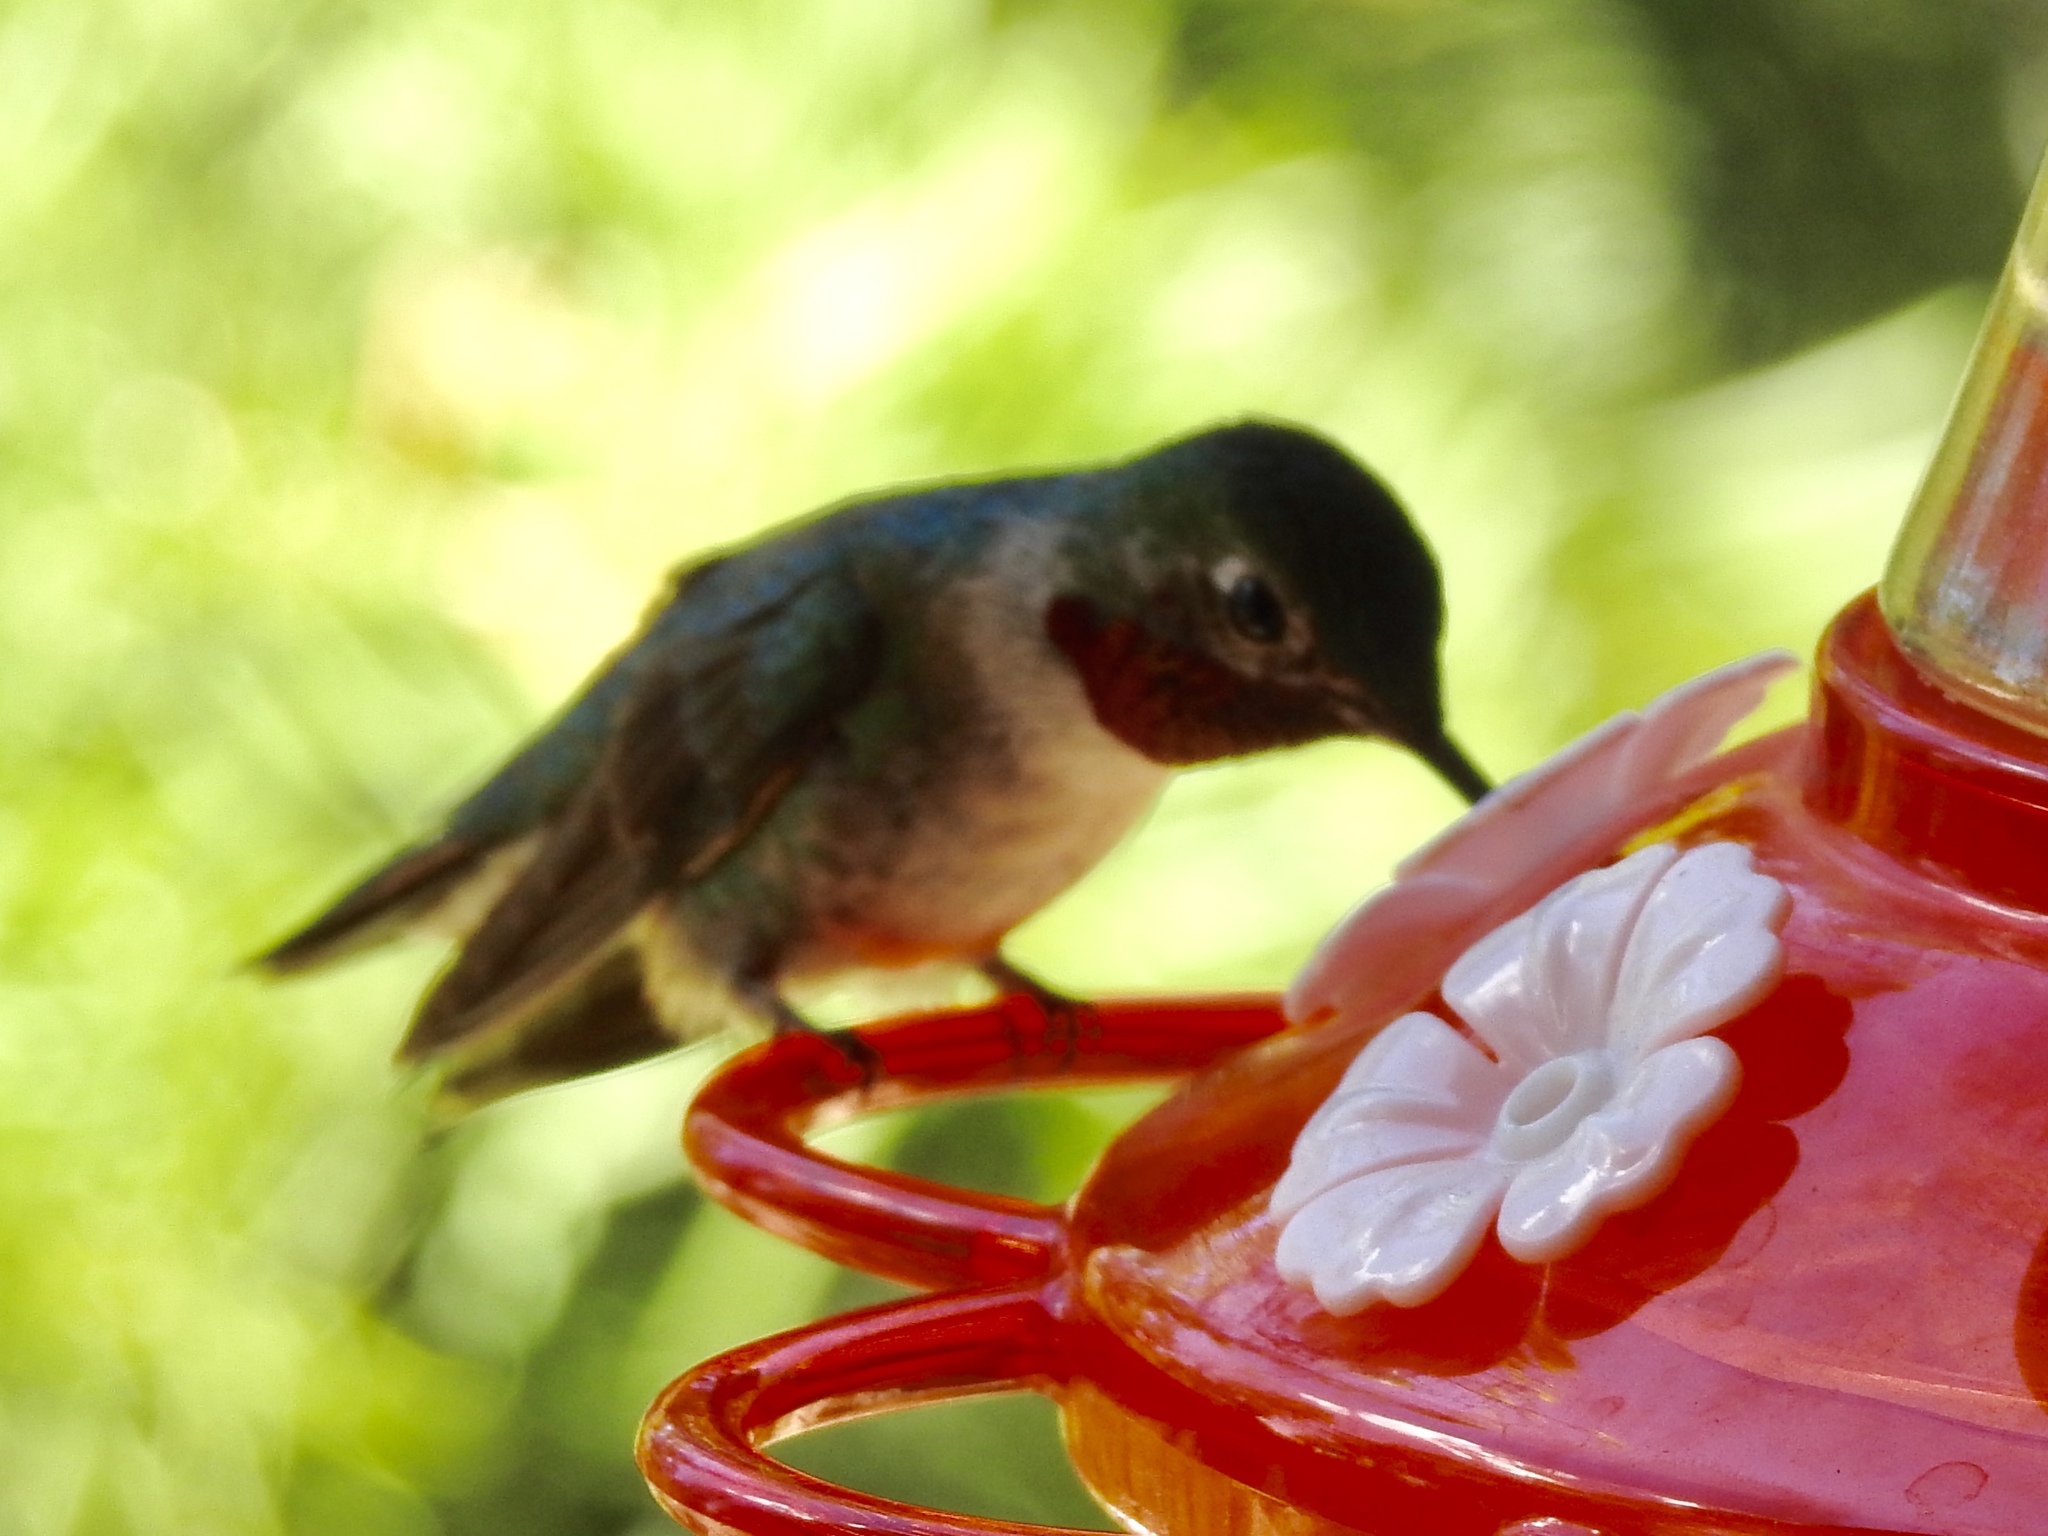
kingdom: Animalia
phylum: Chordata
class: Aves
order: Apodiformes
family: Trochilidae
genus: Selasphorus
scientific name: Selasphorus platycercus
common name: Broad-tailed hummingbird
